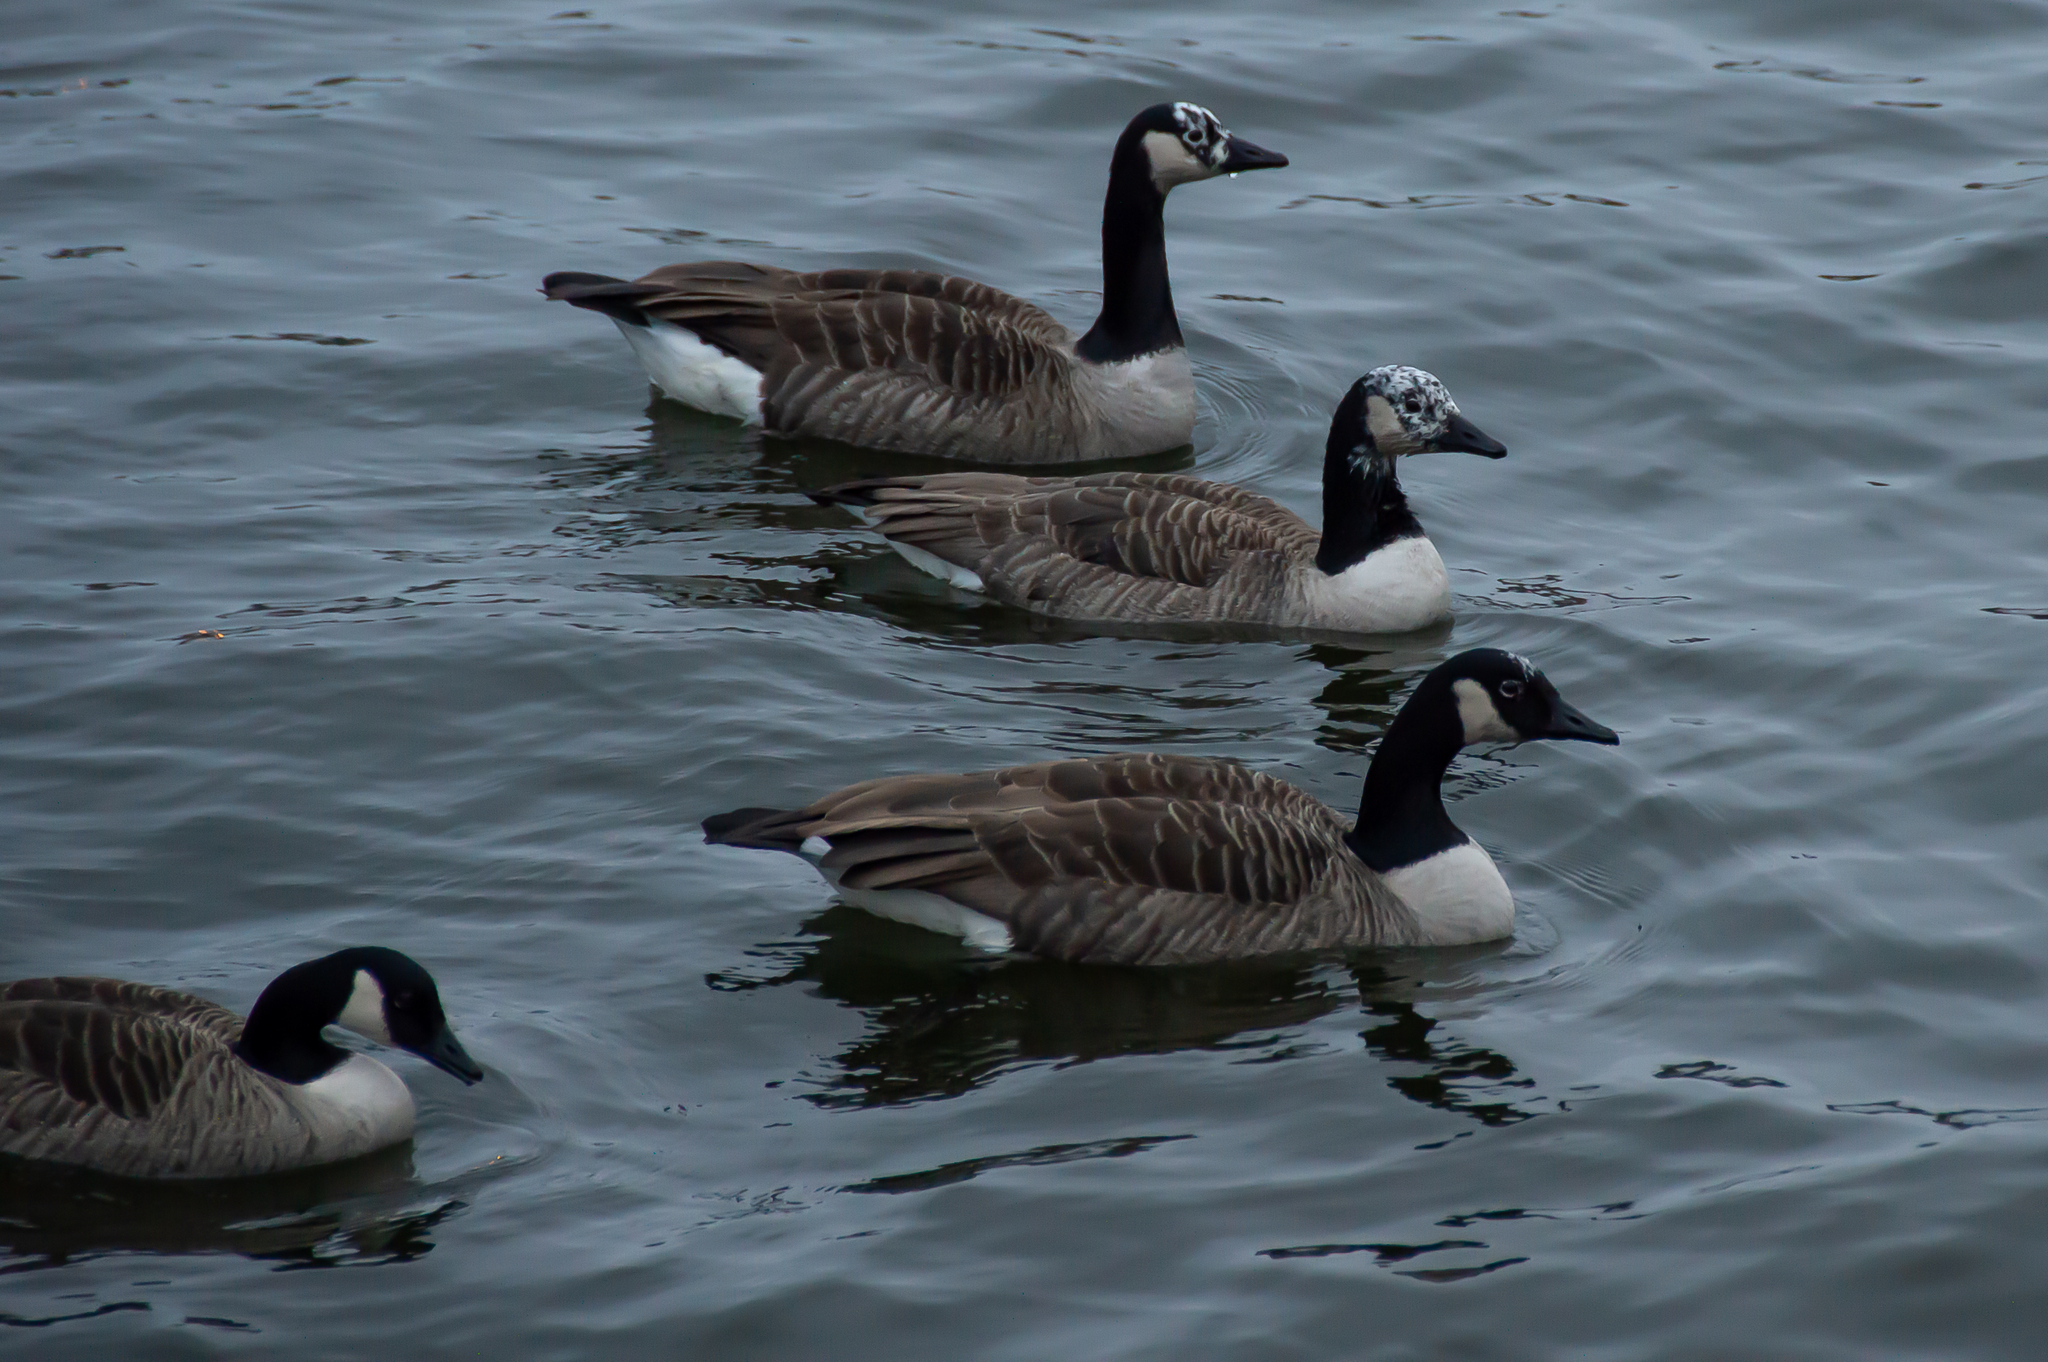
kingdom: Animalia
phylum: Chordata
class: Aves
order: Anseriformes
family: Anatidae
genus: Branta
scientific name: Branta canadensis
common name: Canada goose
